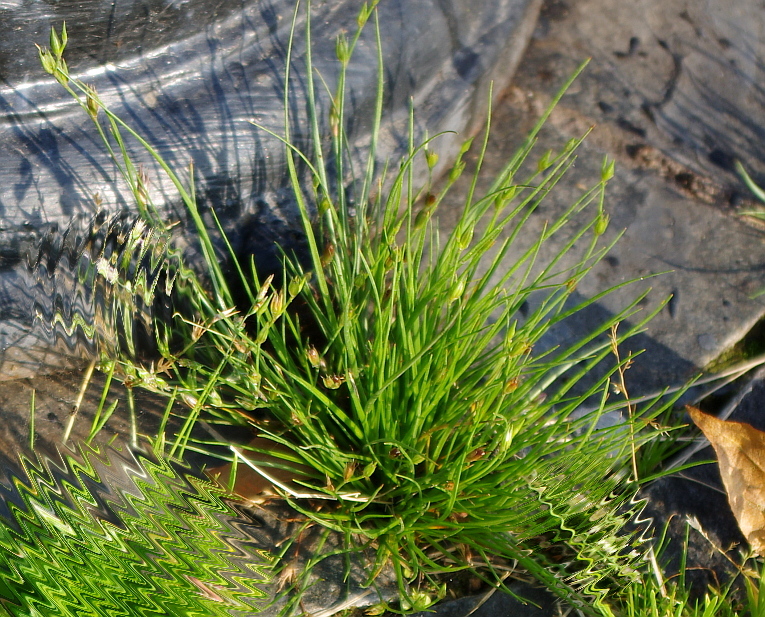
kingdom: Plantae
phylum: Tracheophyta
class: Liliopsida
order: Poales
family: Juncaceae
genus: Juncus
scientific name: Juncus bufonius
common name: Toad rush
